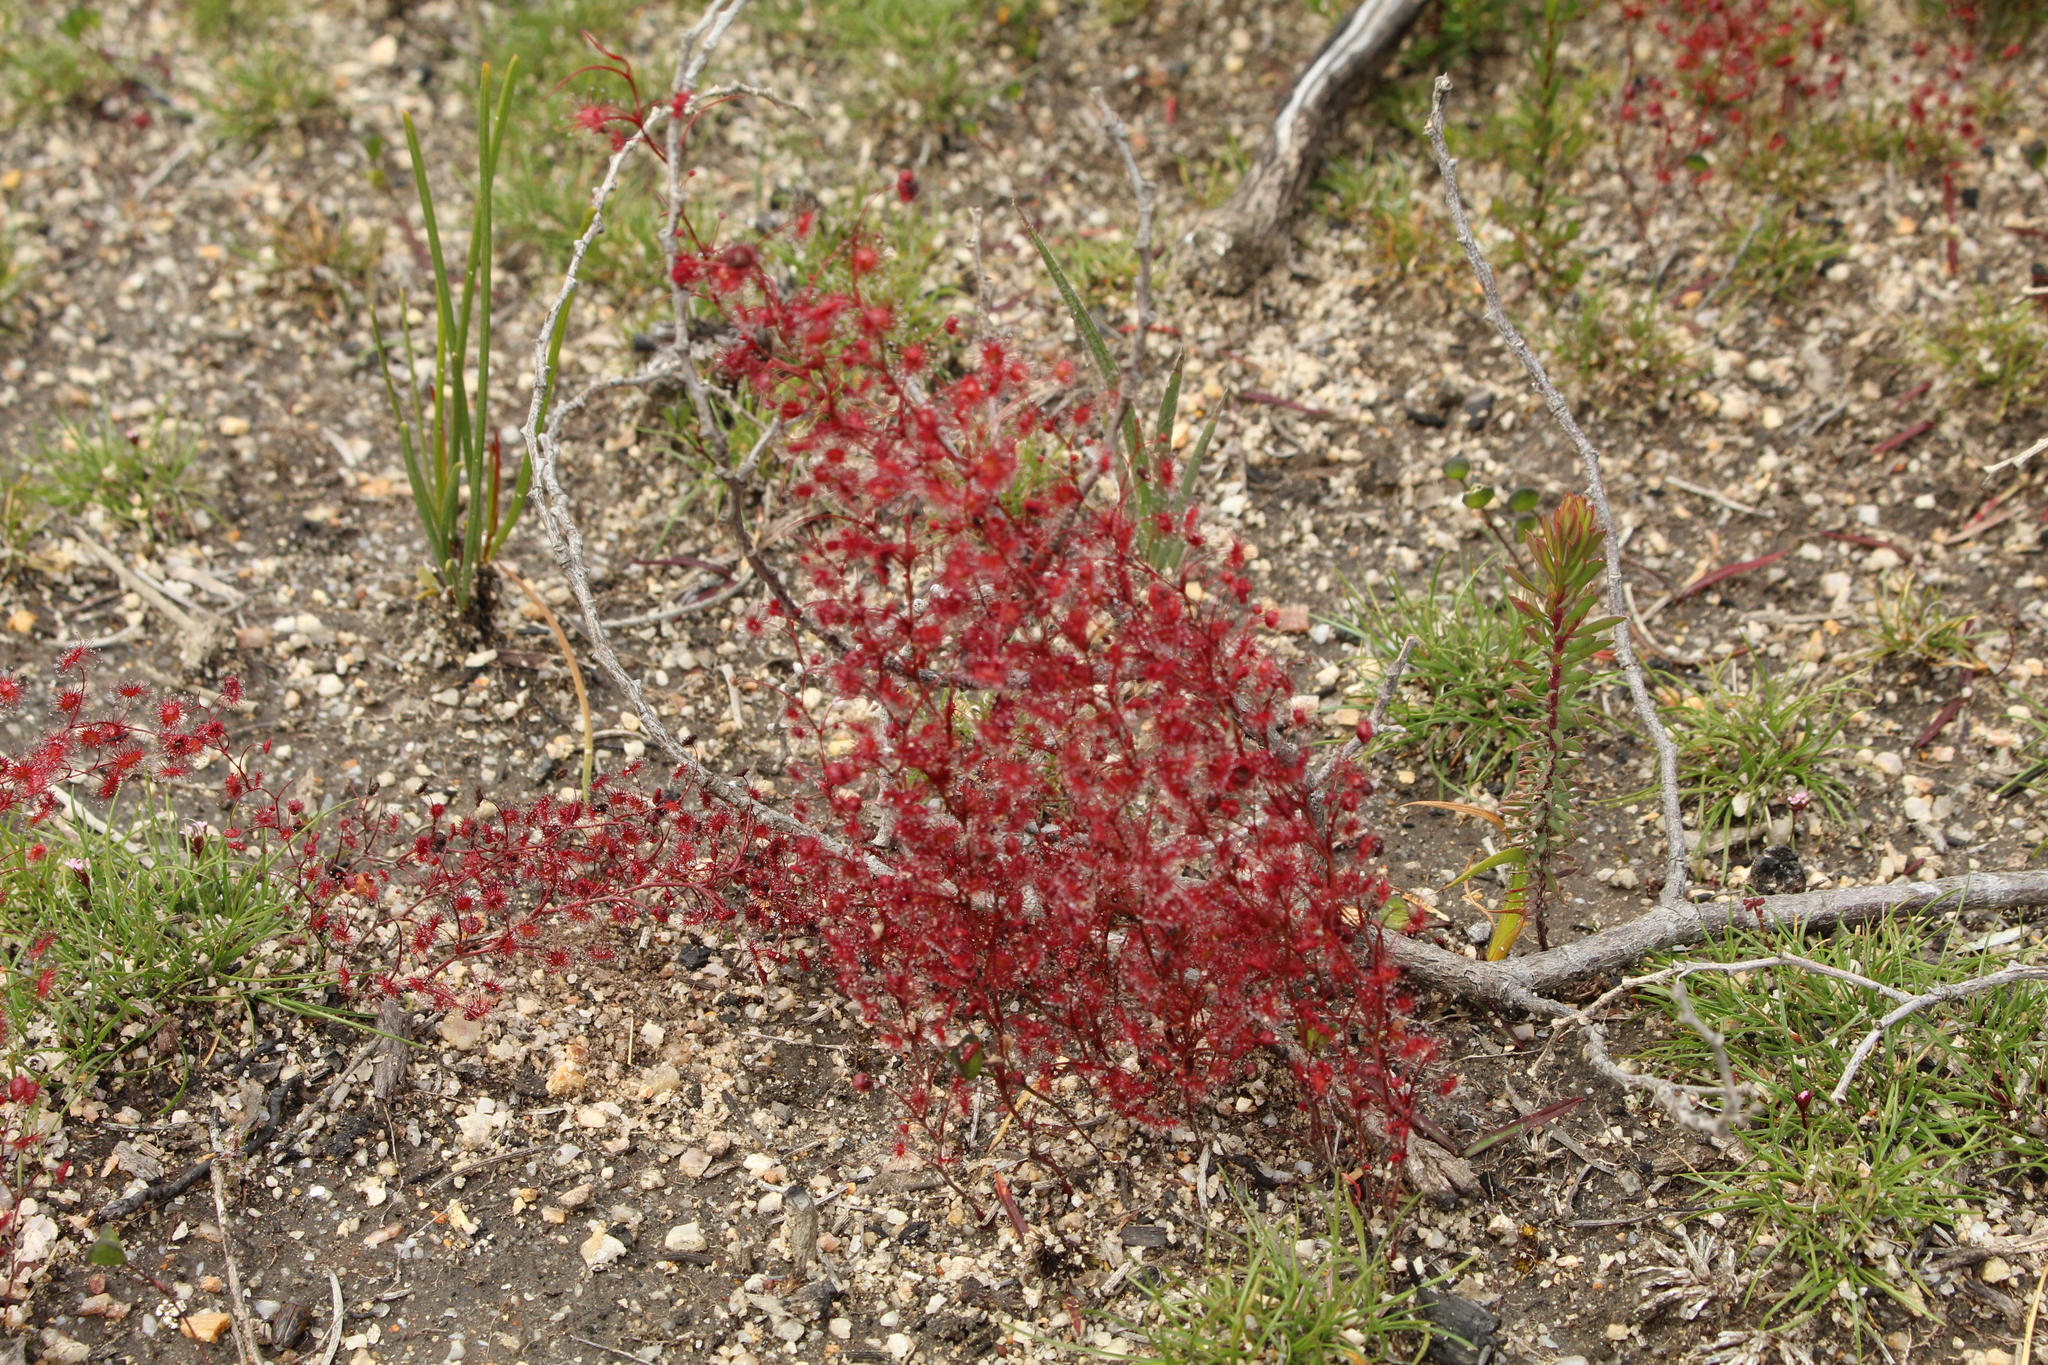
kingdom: Plantae
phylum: Tracheophyta
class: Magnoliopsida
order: Caryophyllales
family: Droseraceae
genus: Drosera
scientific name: Drosera
